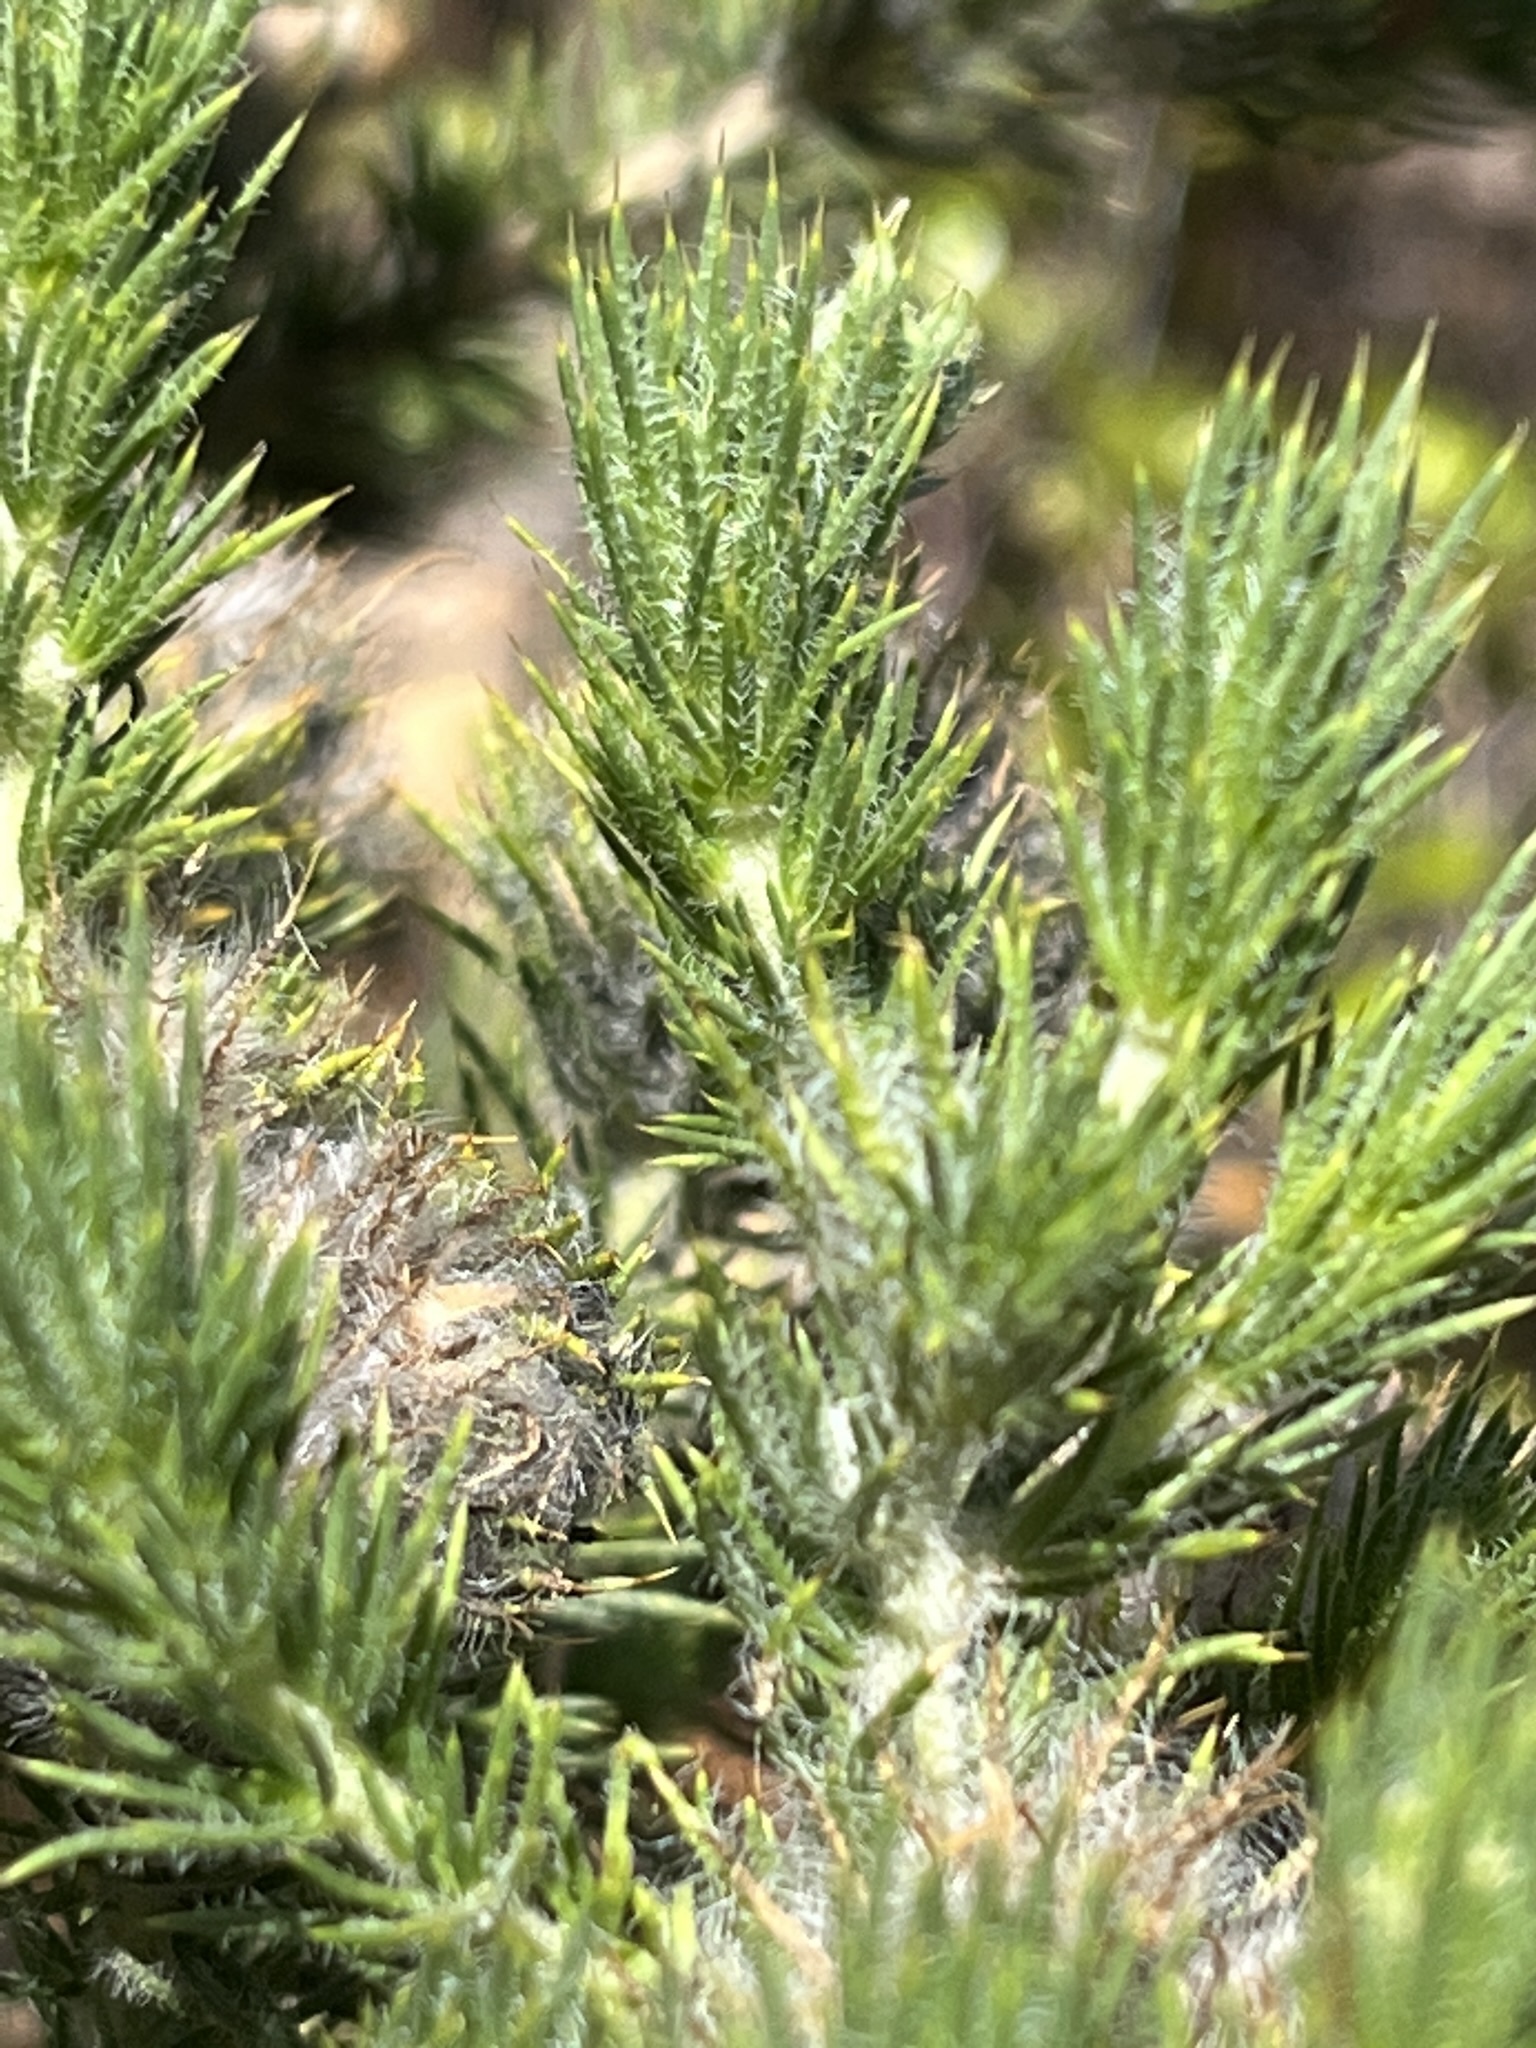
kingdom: Plantae
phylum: Tracheophyta
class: Magnoliopsida
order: Fabales
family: Fabaceae
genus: Aspalathus
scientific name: Aspalathus chenopoda
